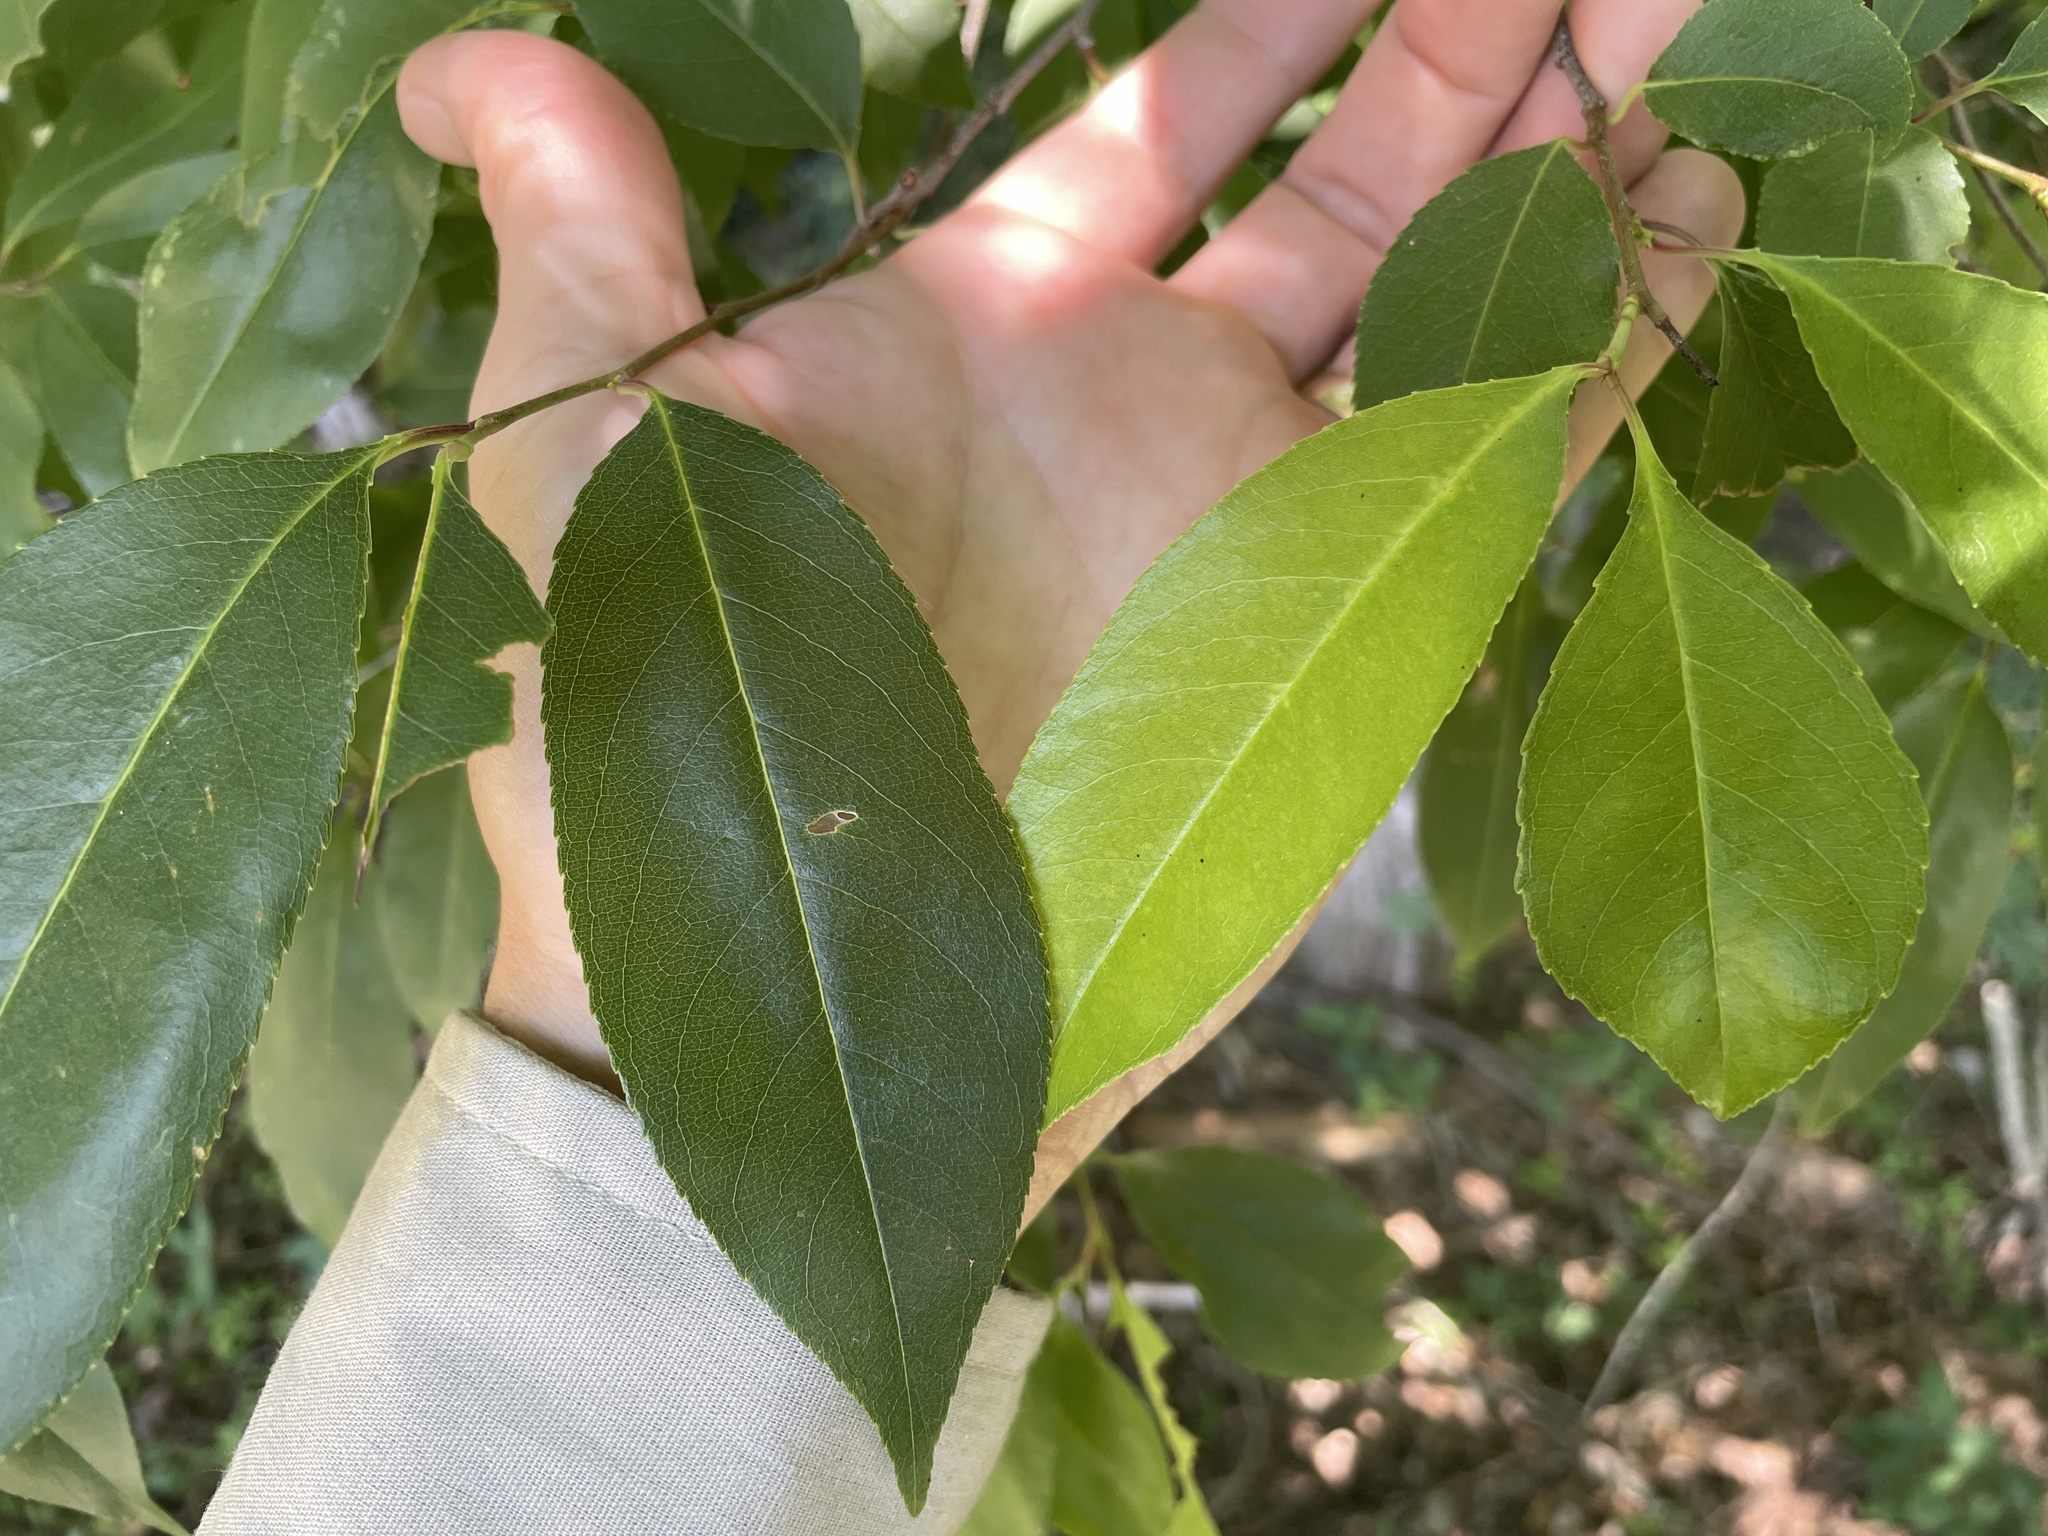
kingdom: Plantae
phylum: Tracheophyta
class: Magnoliopsida
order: Rosales
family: Rosaceae
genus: Prunus
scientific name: Prunus serotina
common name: Black cherry
